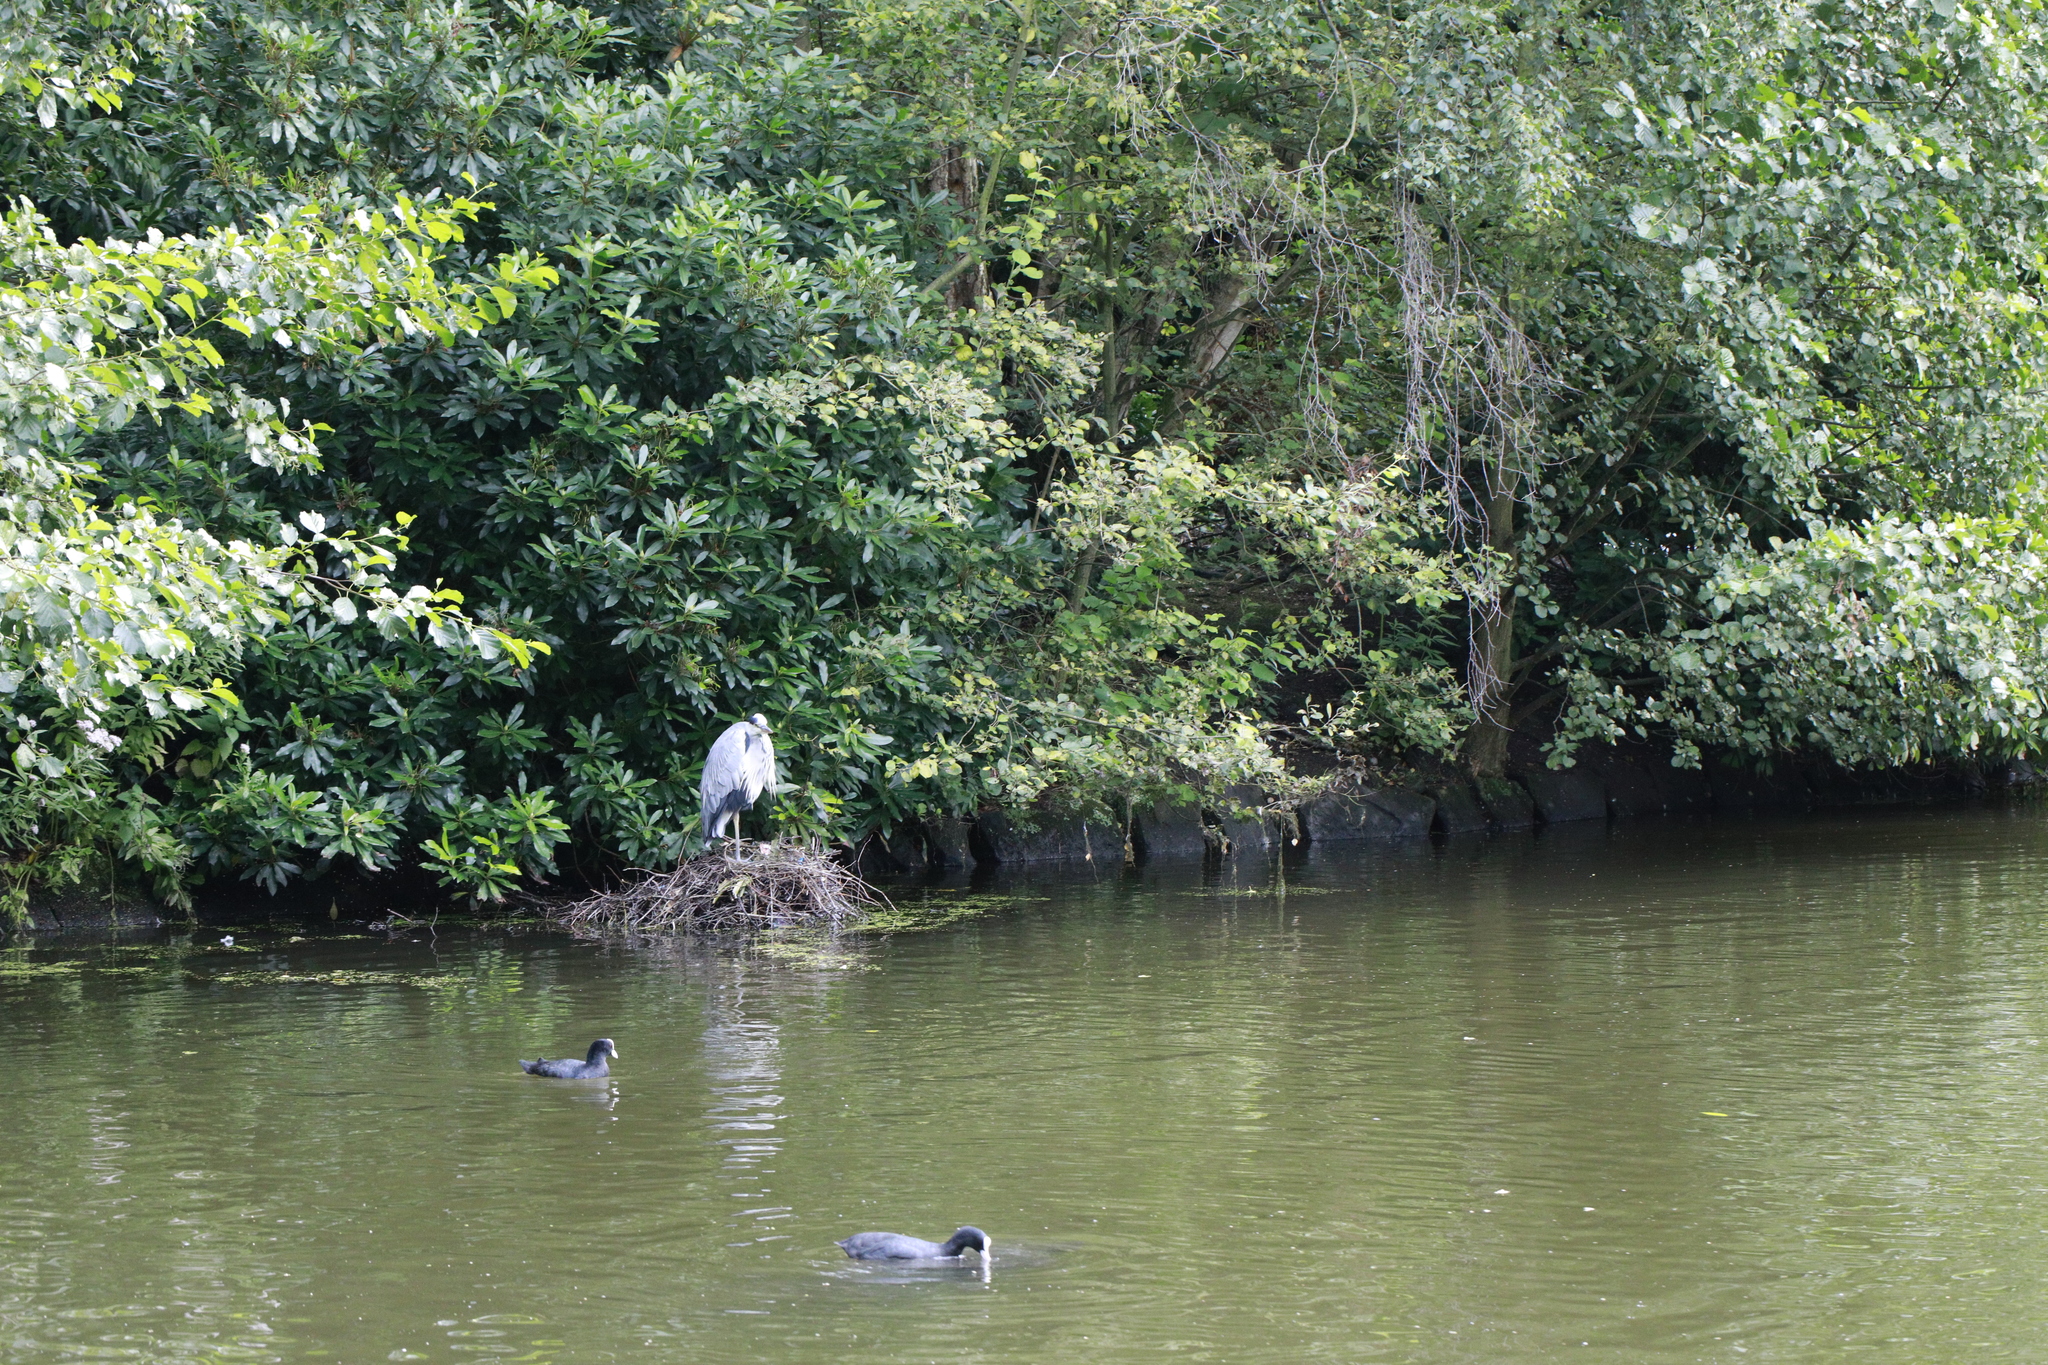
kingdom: Animalia
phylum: Chordata
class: Aves
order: Pelecaniformes
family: Ardeidae
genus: Ardea
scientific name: Ardea cinerea
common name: Grey heron
